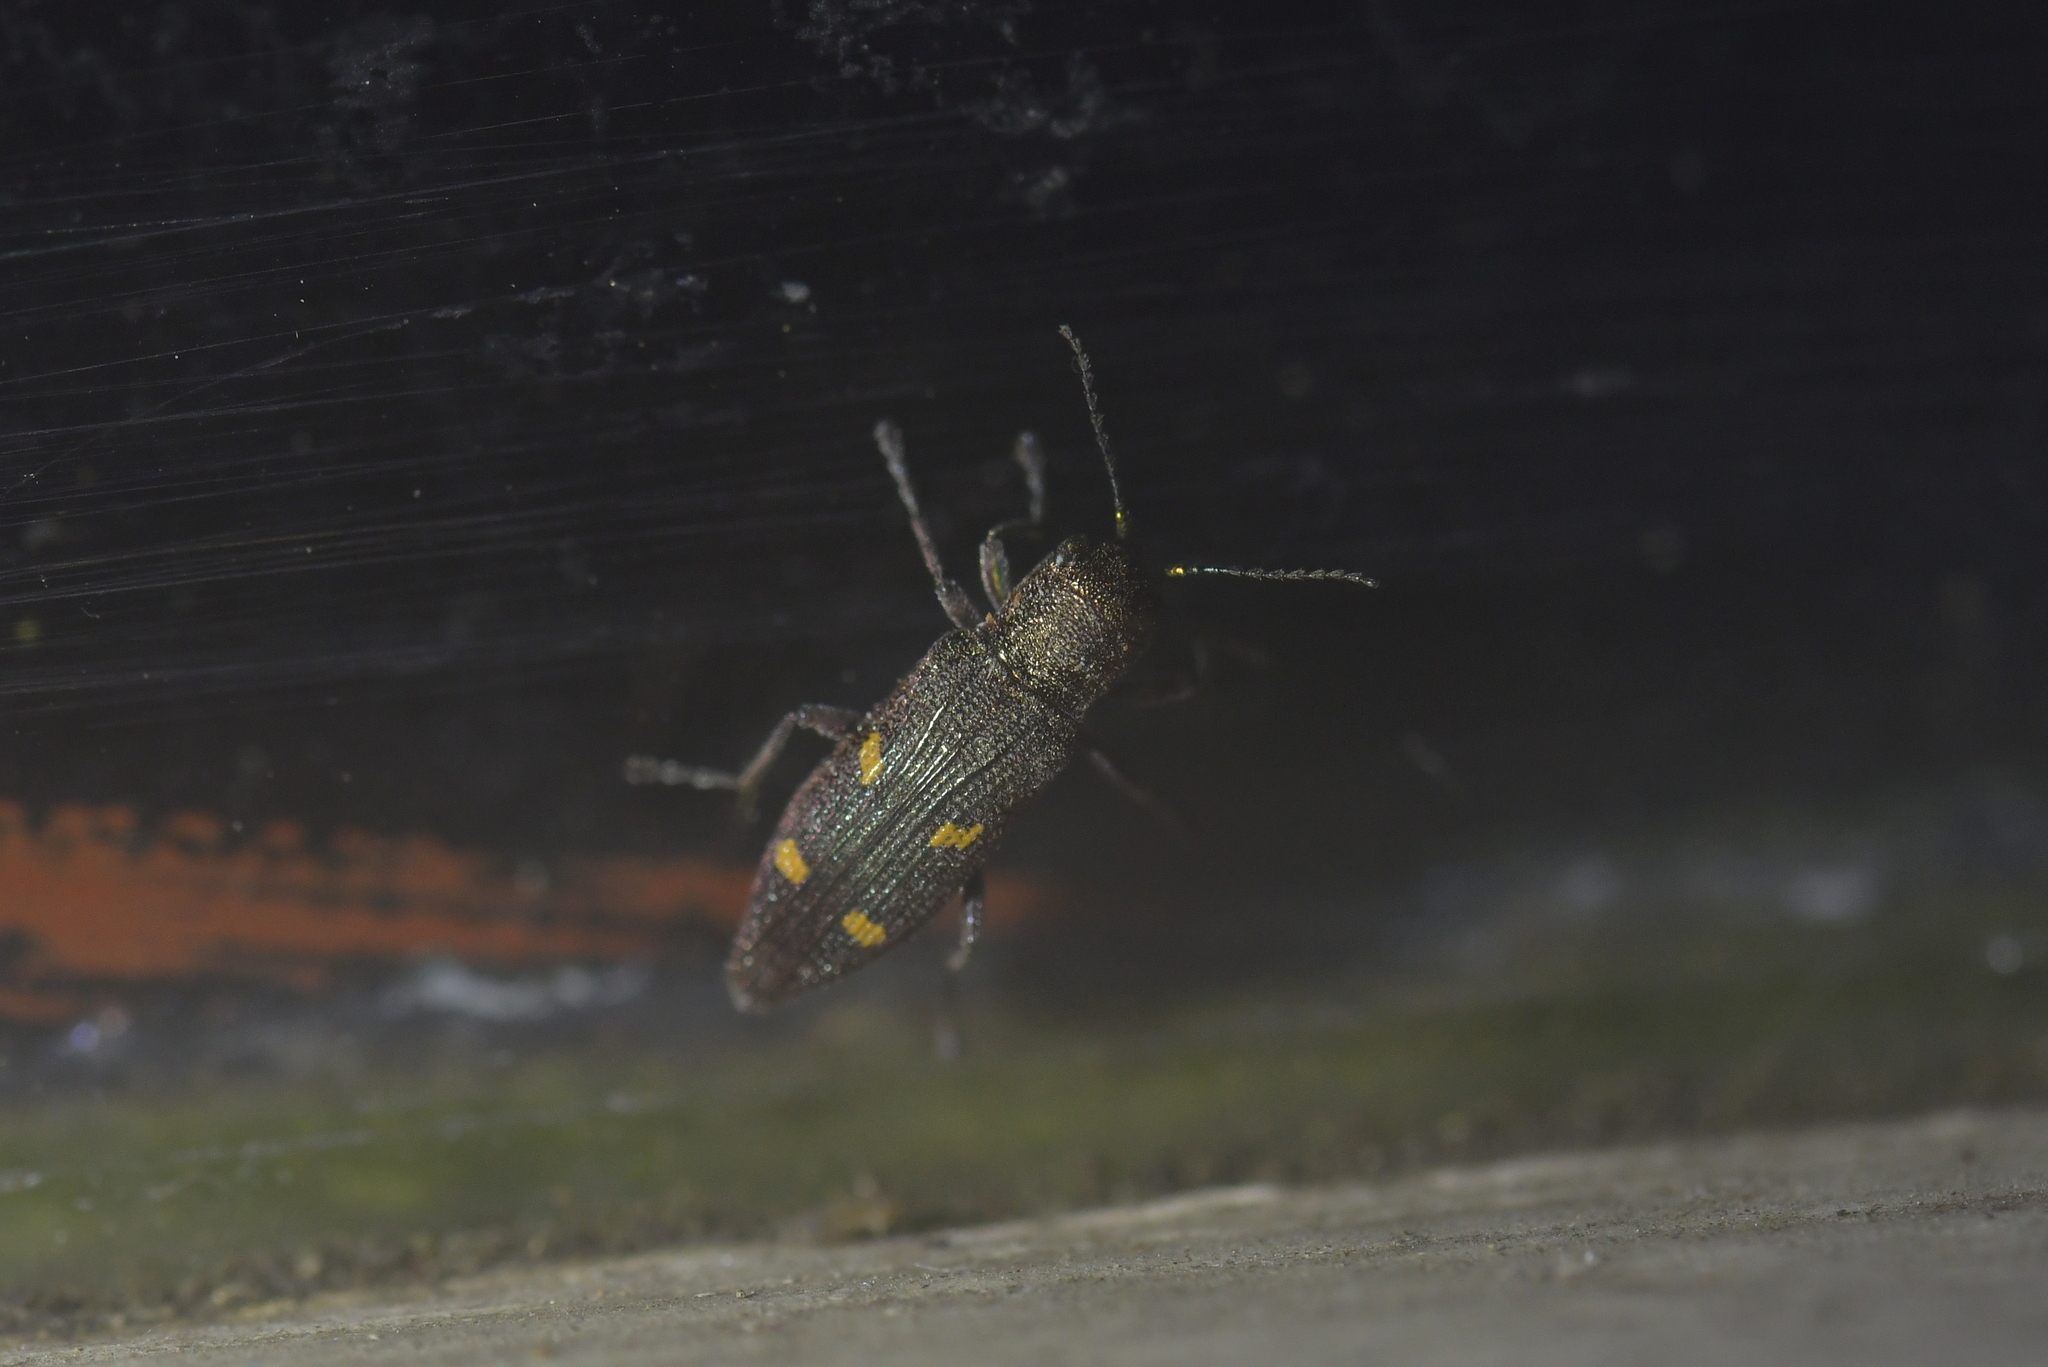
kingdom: Animalia
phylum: Arthropoda
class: Insecta
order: Coleoptera
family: Buprestidae
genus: Nascioides
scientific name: Nascioides enysi
